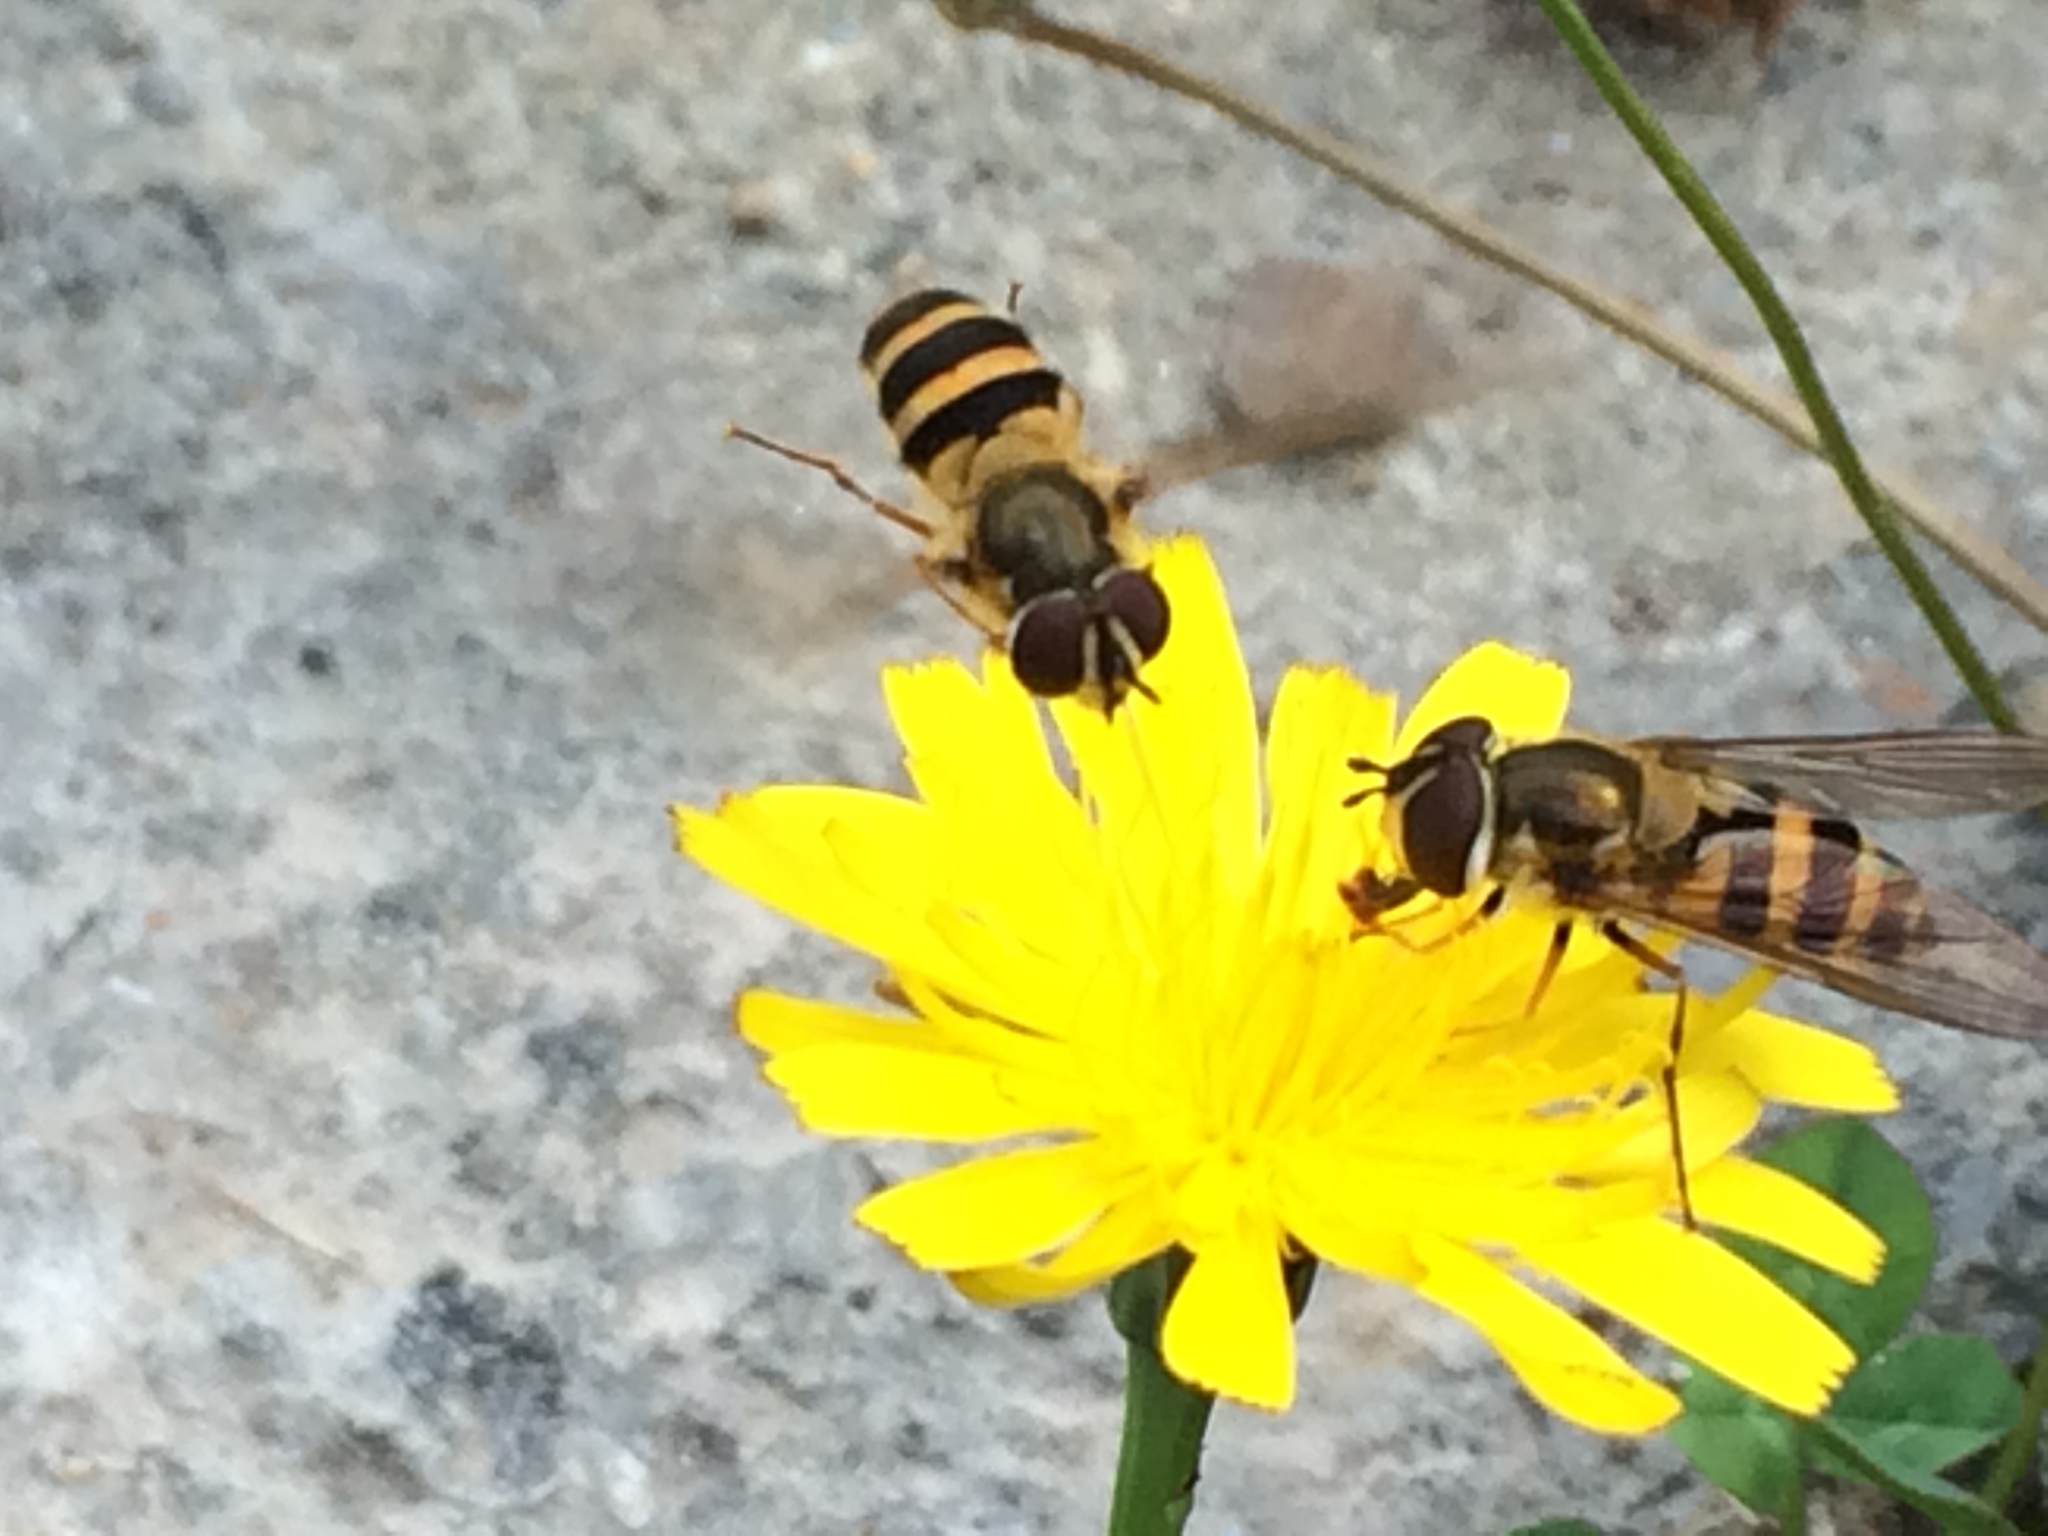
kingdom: Animalia
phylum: Arthropoda
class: Insecta
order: Diptera
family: Syrphidae
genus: Epistrophe
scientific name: Epistrophe grossulariae
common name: Black-horned smoothtail
